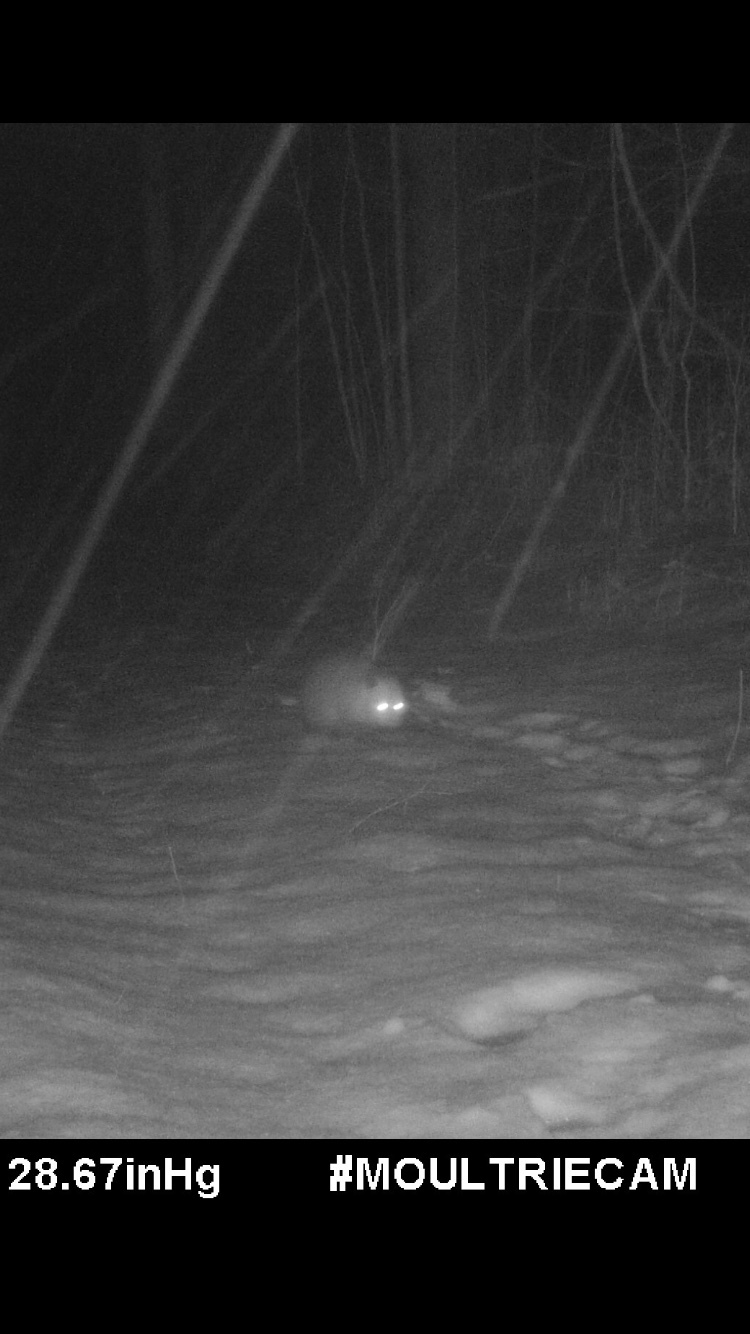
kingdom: Animalia
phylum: Chordata
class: Mammalia
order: Didelphimorphia
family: Didelphidae
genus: Didelphis
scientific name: Didelphis virginiana
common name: Virginia opossum
